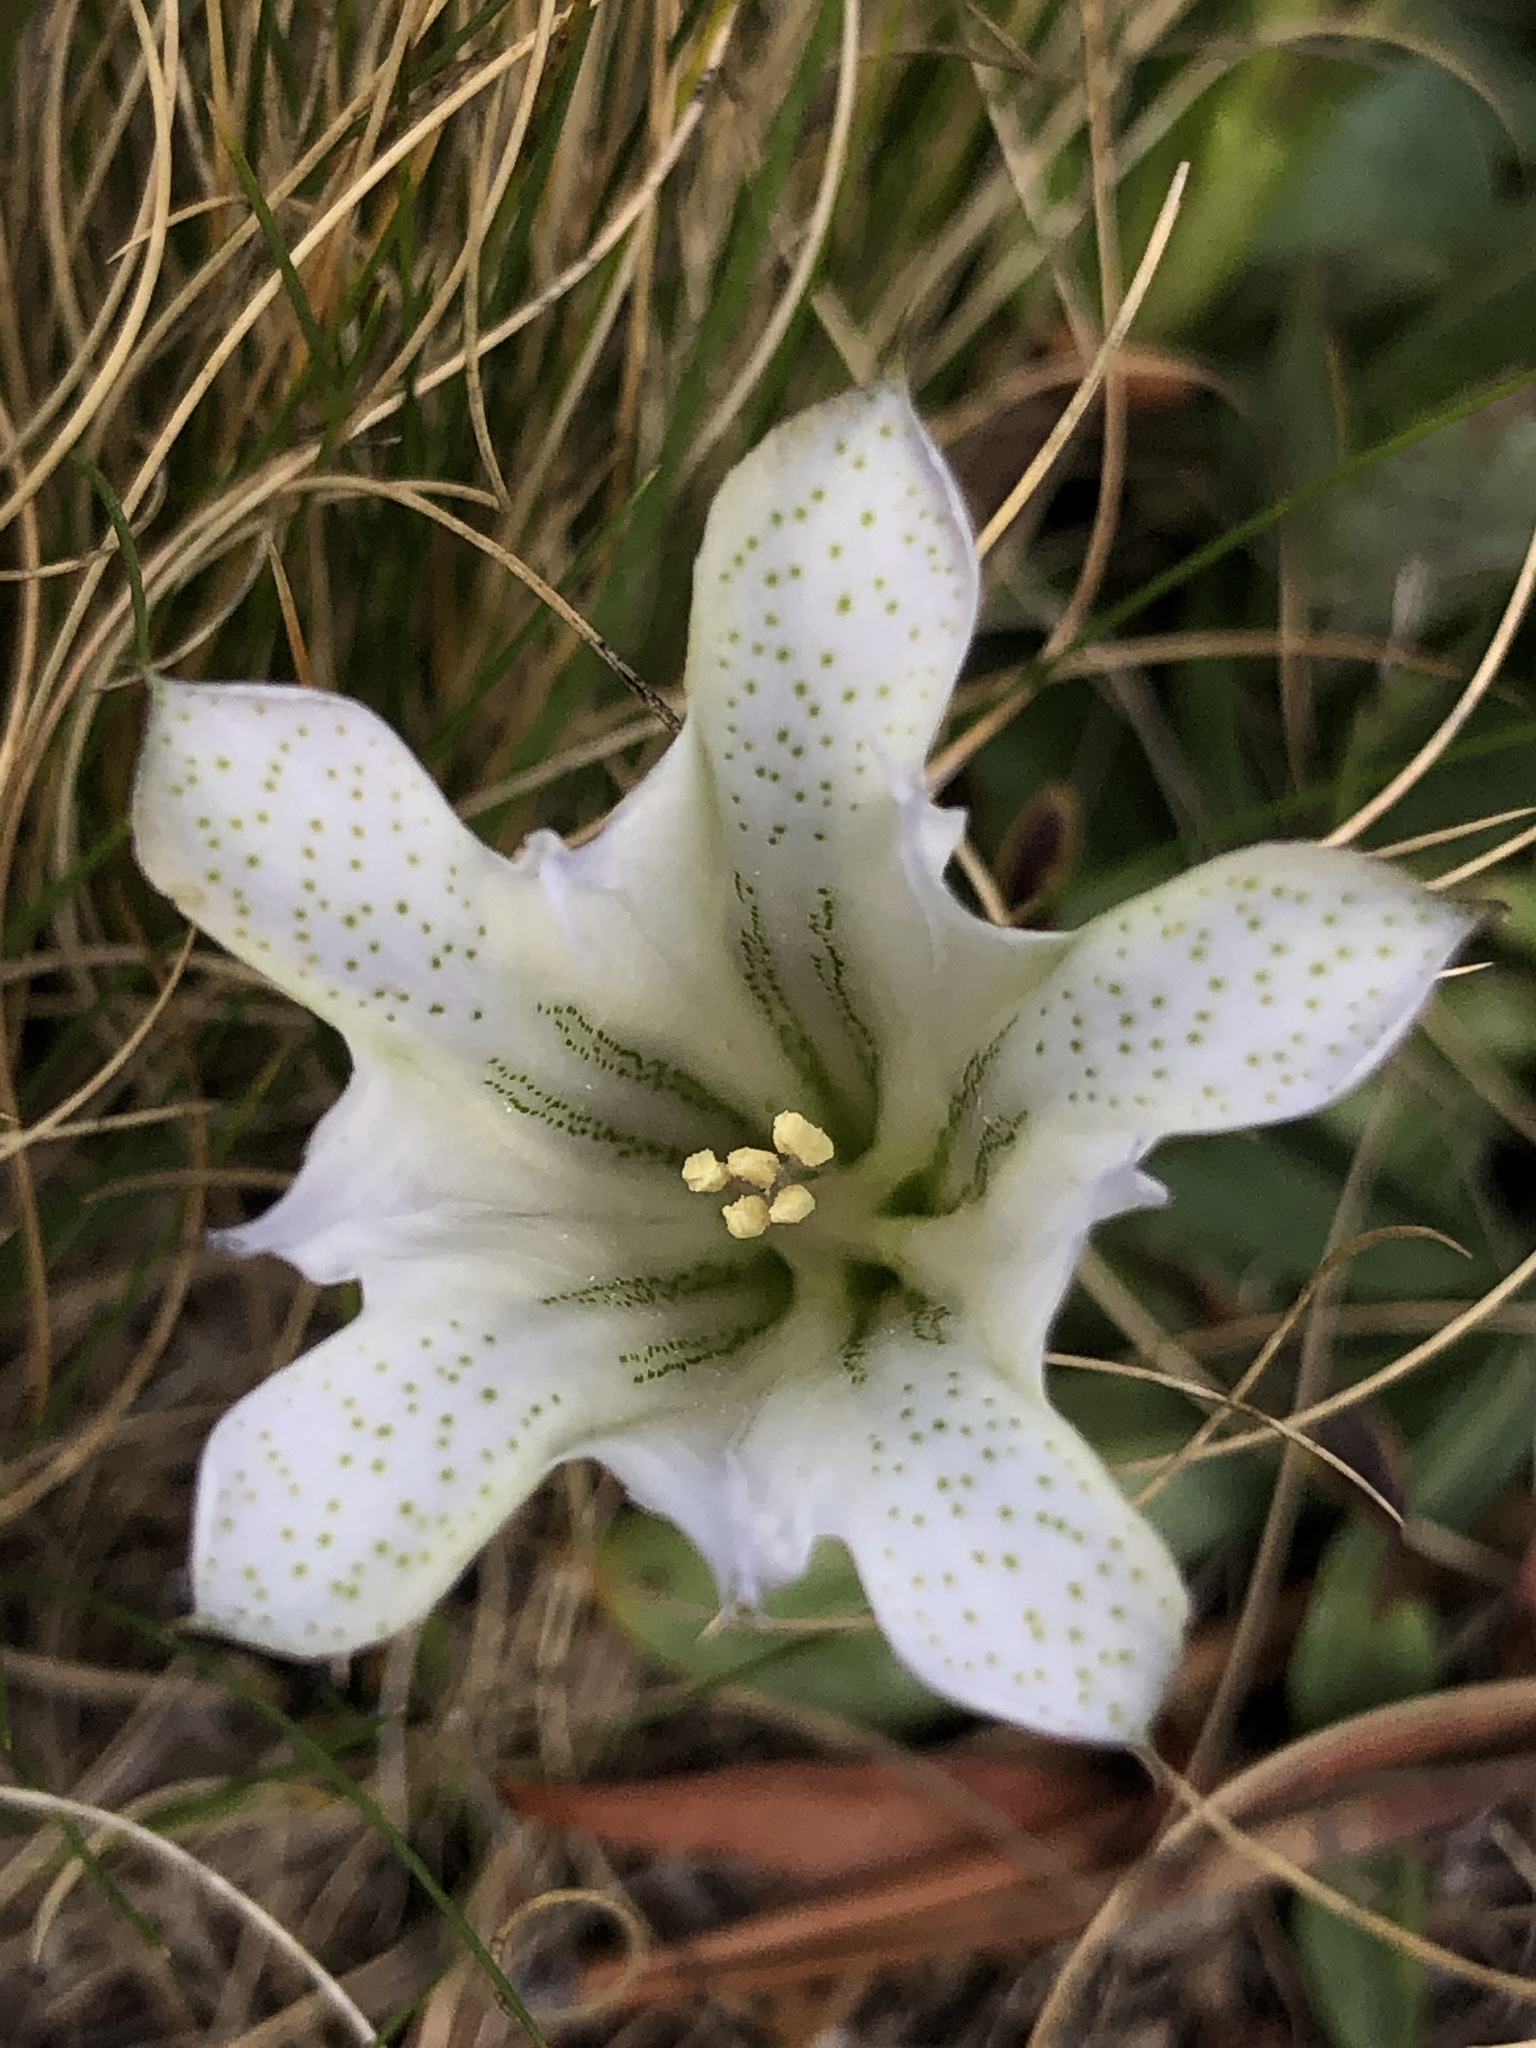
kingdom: Plantae
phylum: Tracheophyta
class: Magnoliopsida
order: Gentianales
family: Gentianaceae
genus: Gentiana
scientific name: Gentiana newberryi
